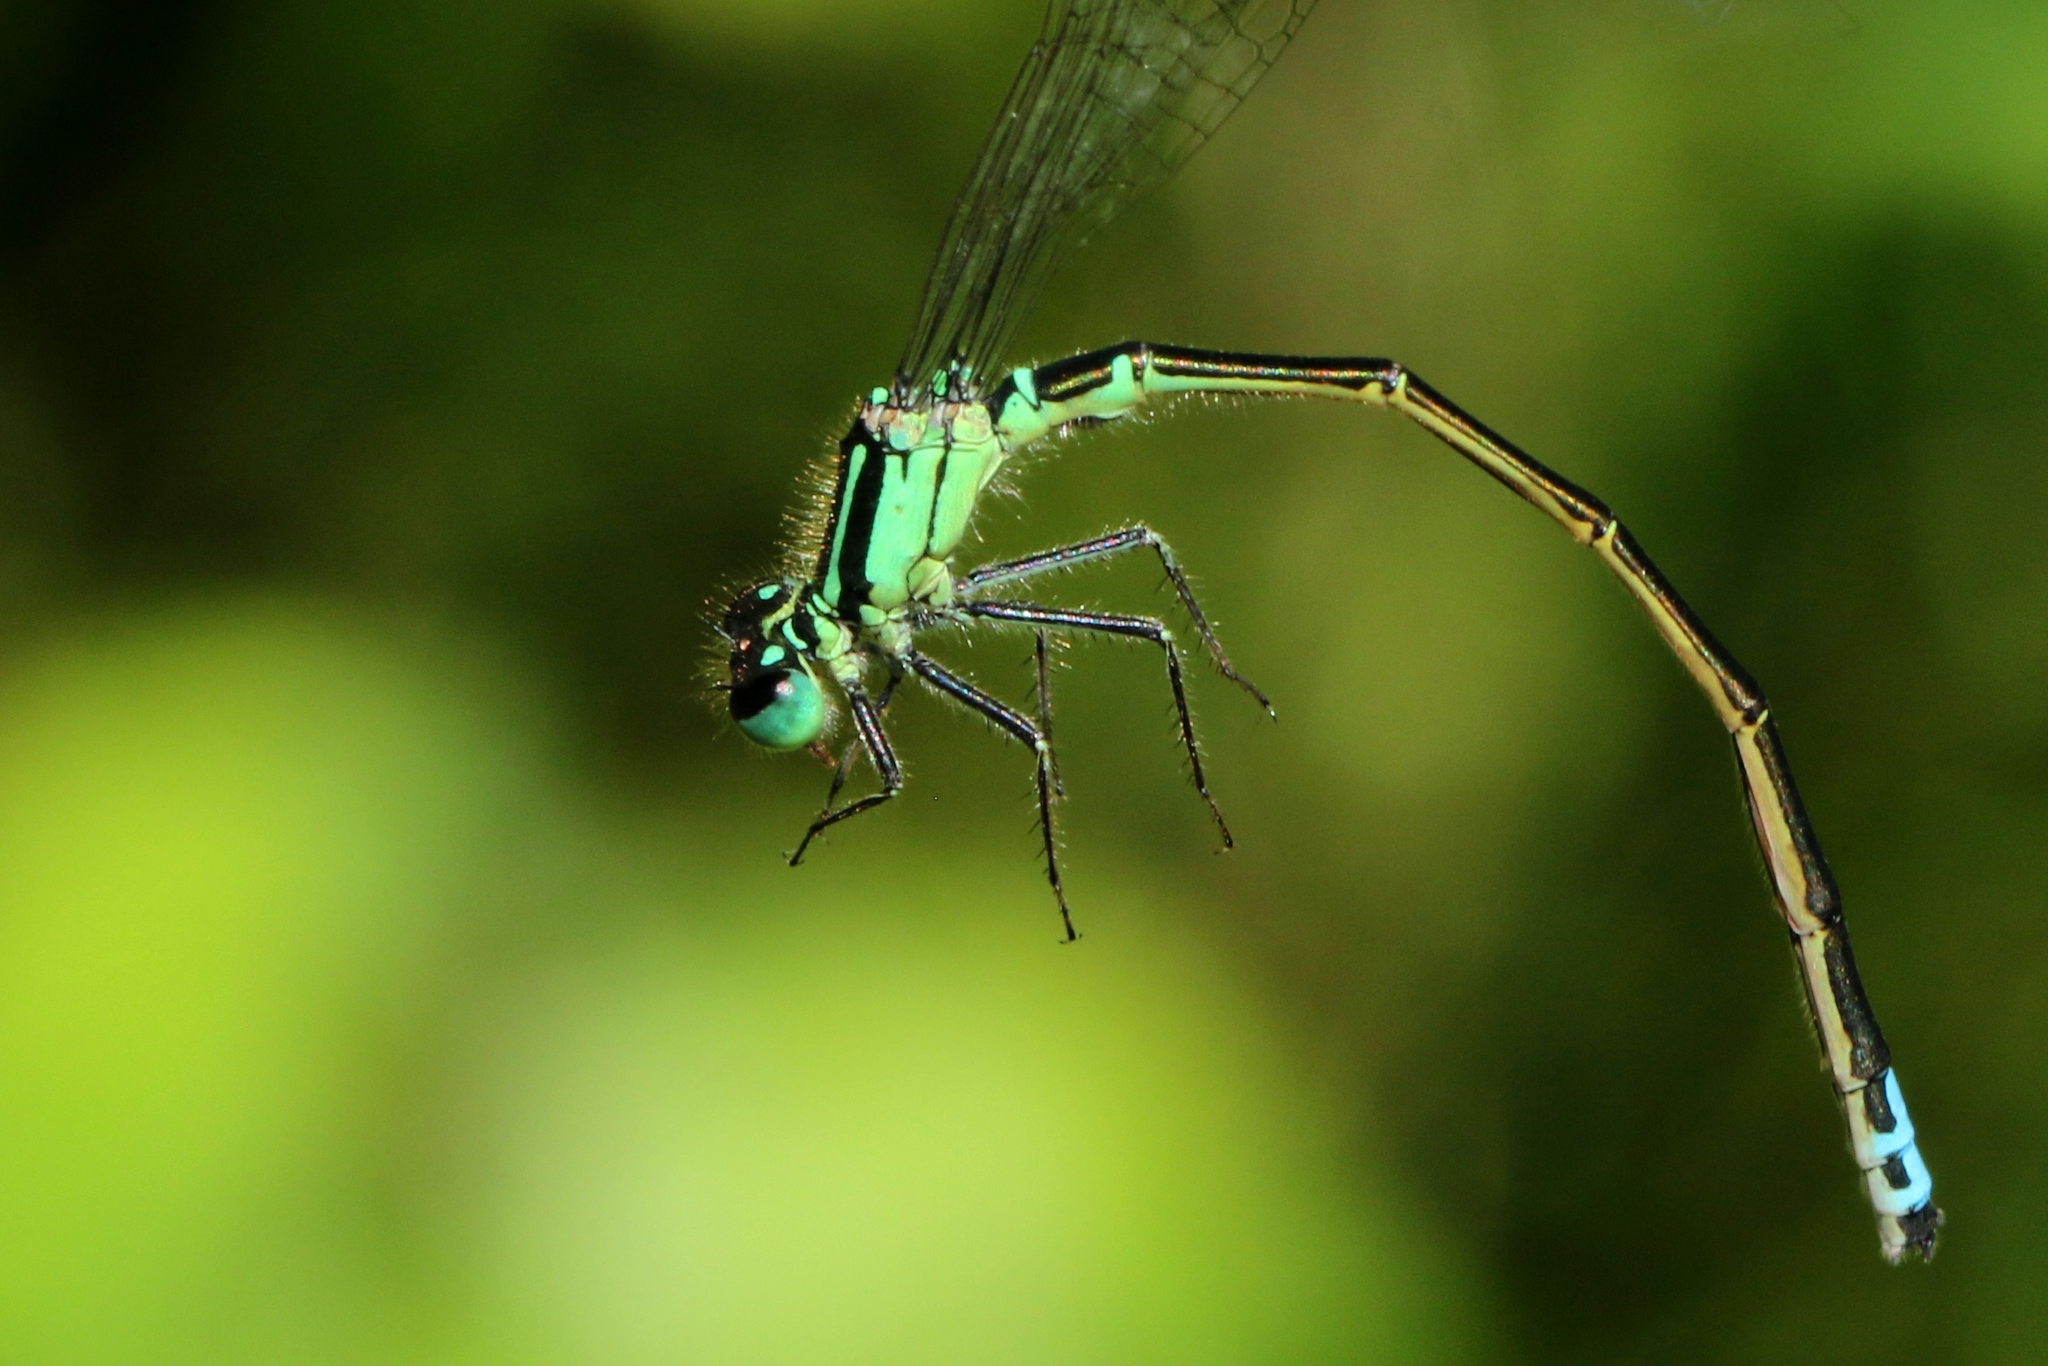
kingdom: Animalia
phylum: Arthropoda
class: Insecta
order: Odonata
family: Coenagrionidae
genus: Ischnura
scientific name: Ischnura verticalis
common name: Eastern forktail
